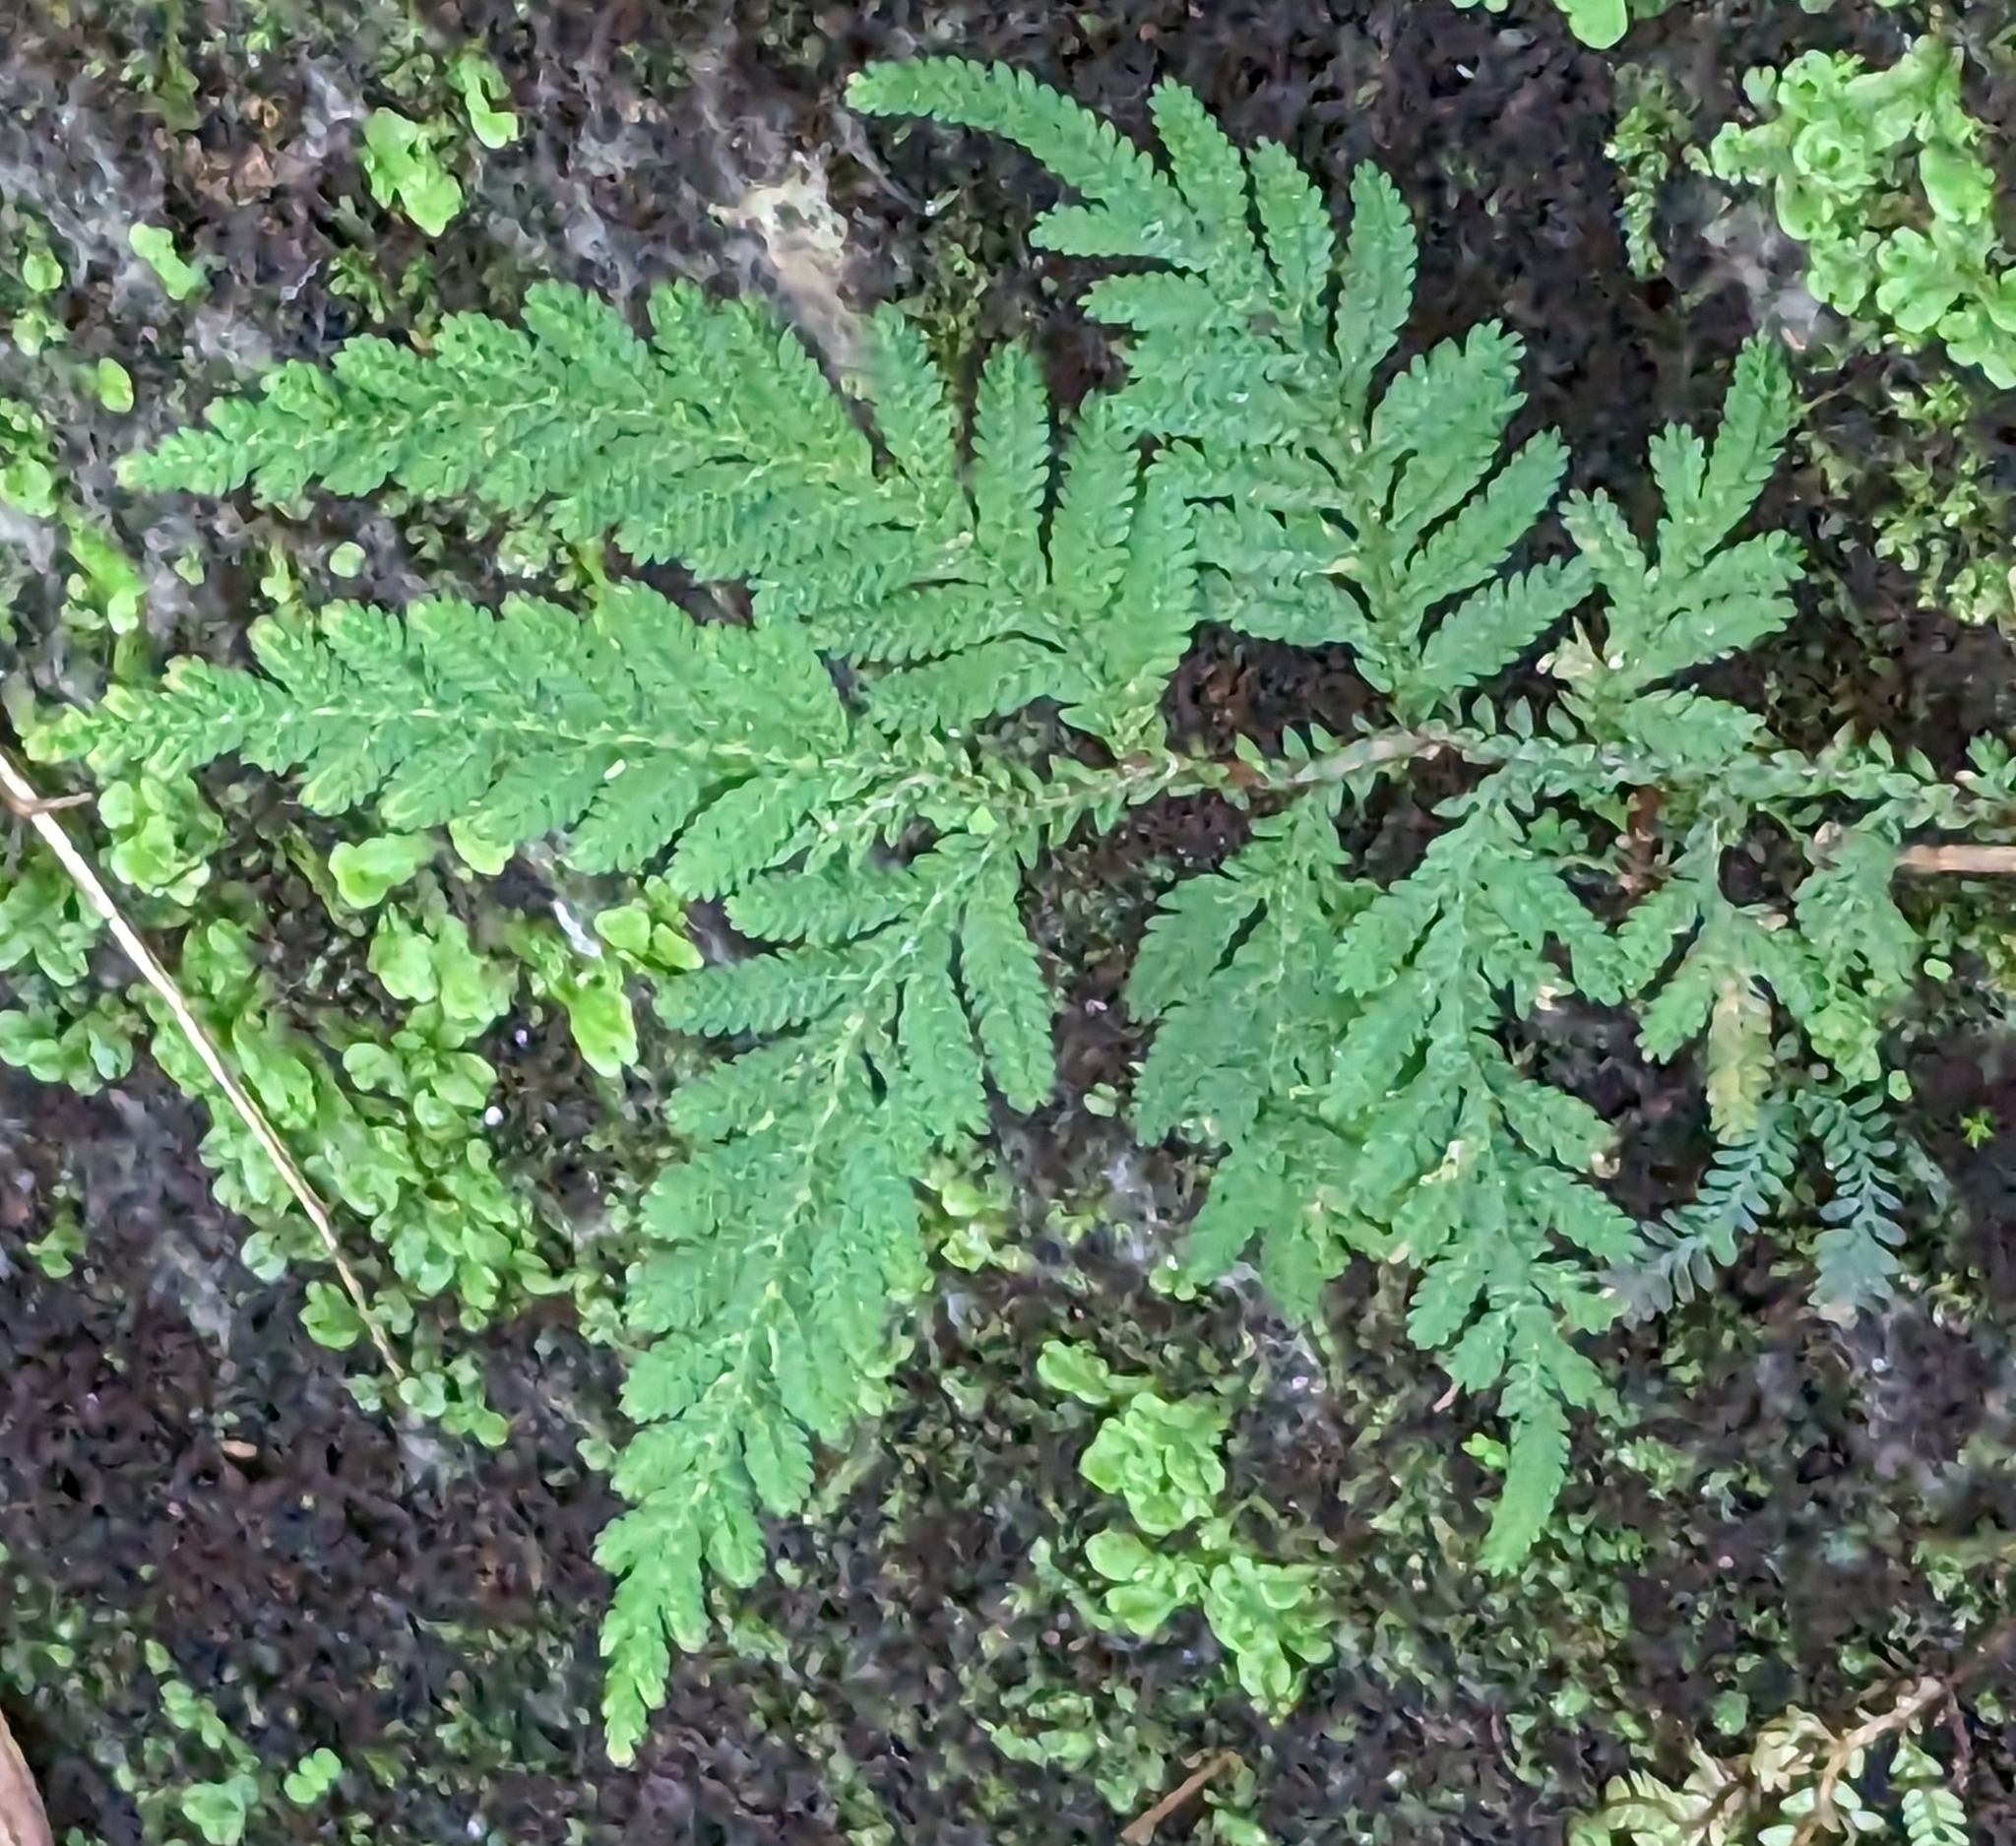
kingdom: Plantae
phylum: Tracheophyta
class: Lycopodiopsida
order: Selaginellales
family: Selaginellaceae
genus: Selaginella
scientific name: Selaginella delicatula
